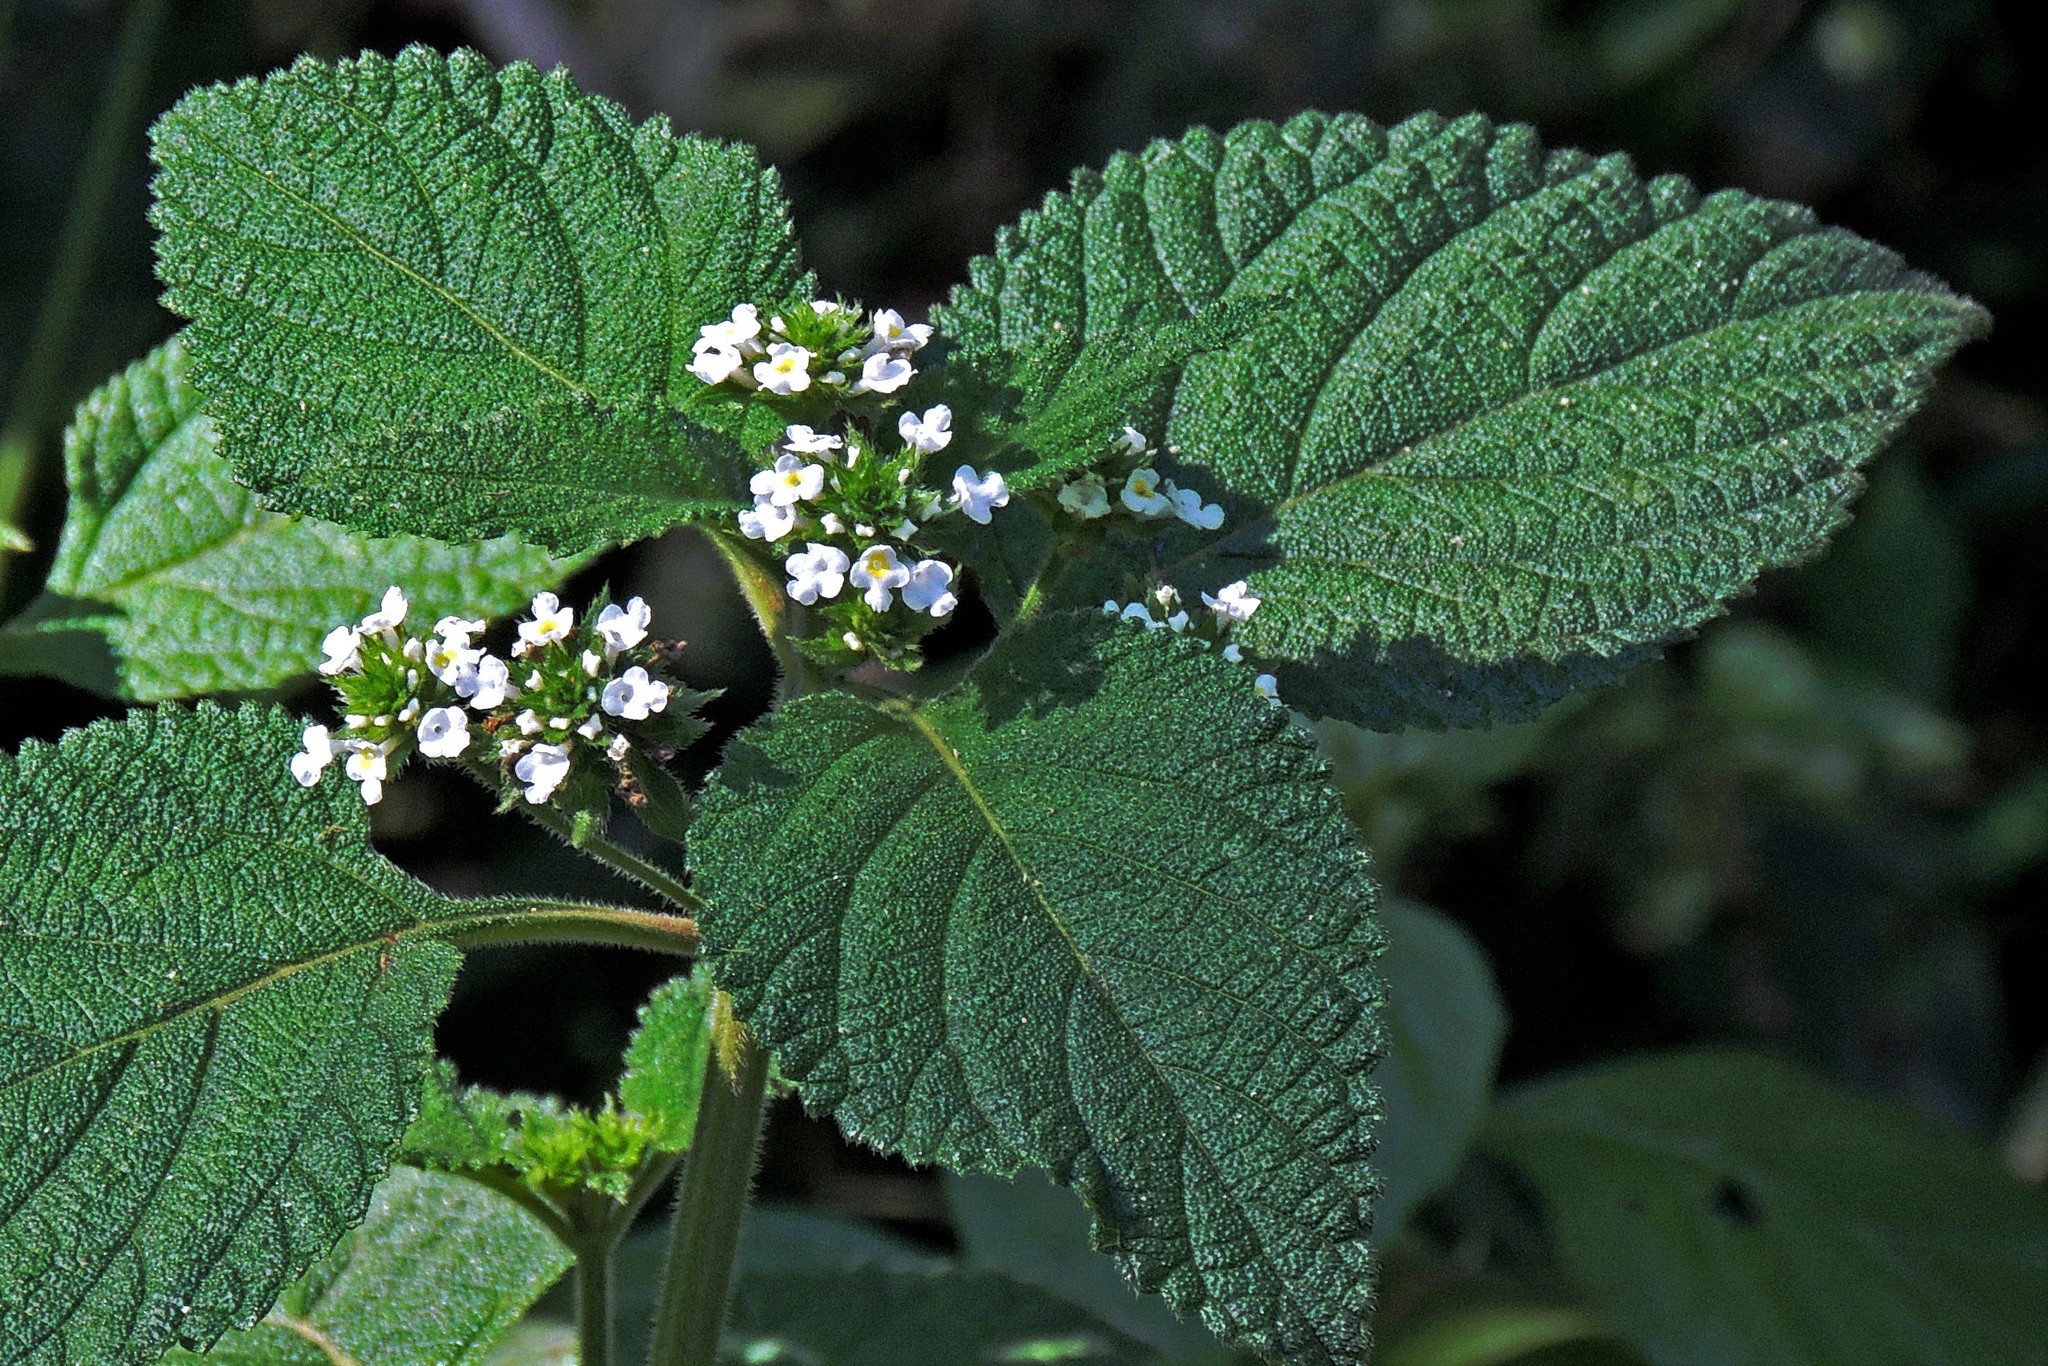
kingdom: Plantae
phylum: Tracheophyta
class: Magnoliopsida
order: Lamiales
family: Verbenaceae
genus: Lippia
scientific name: Lippia lippioides
